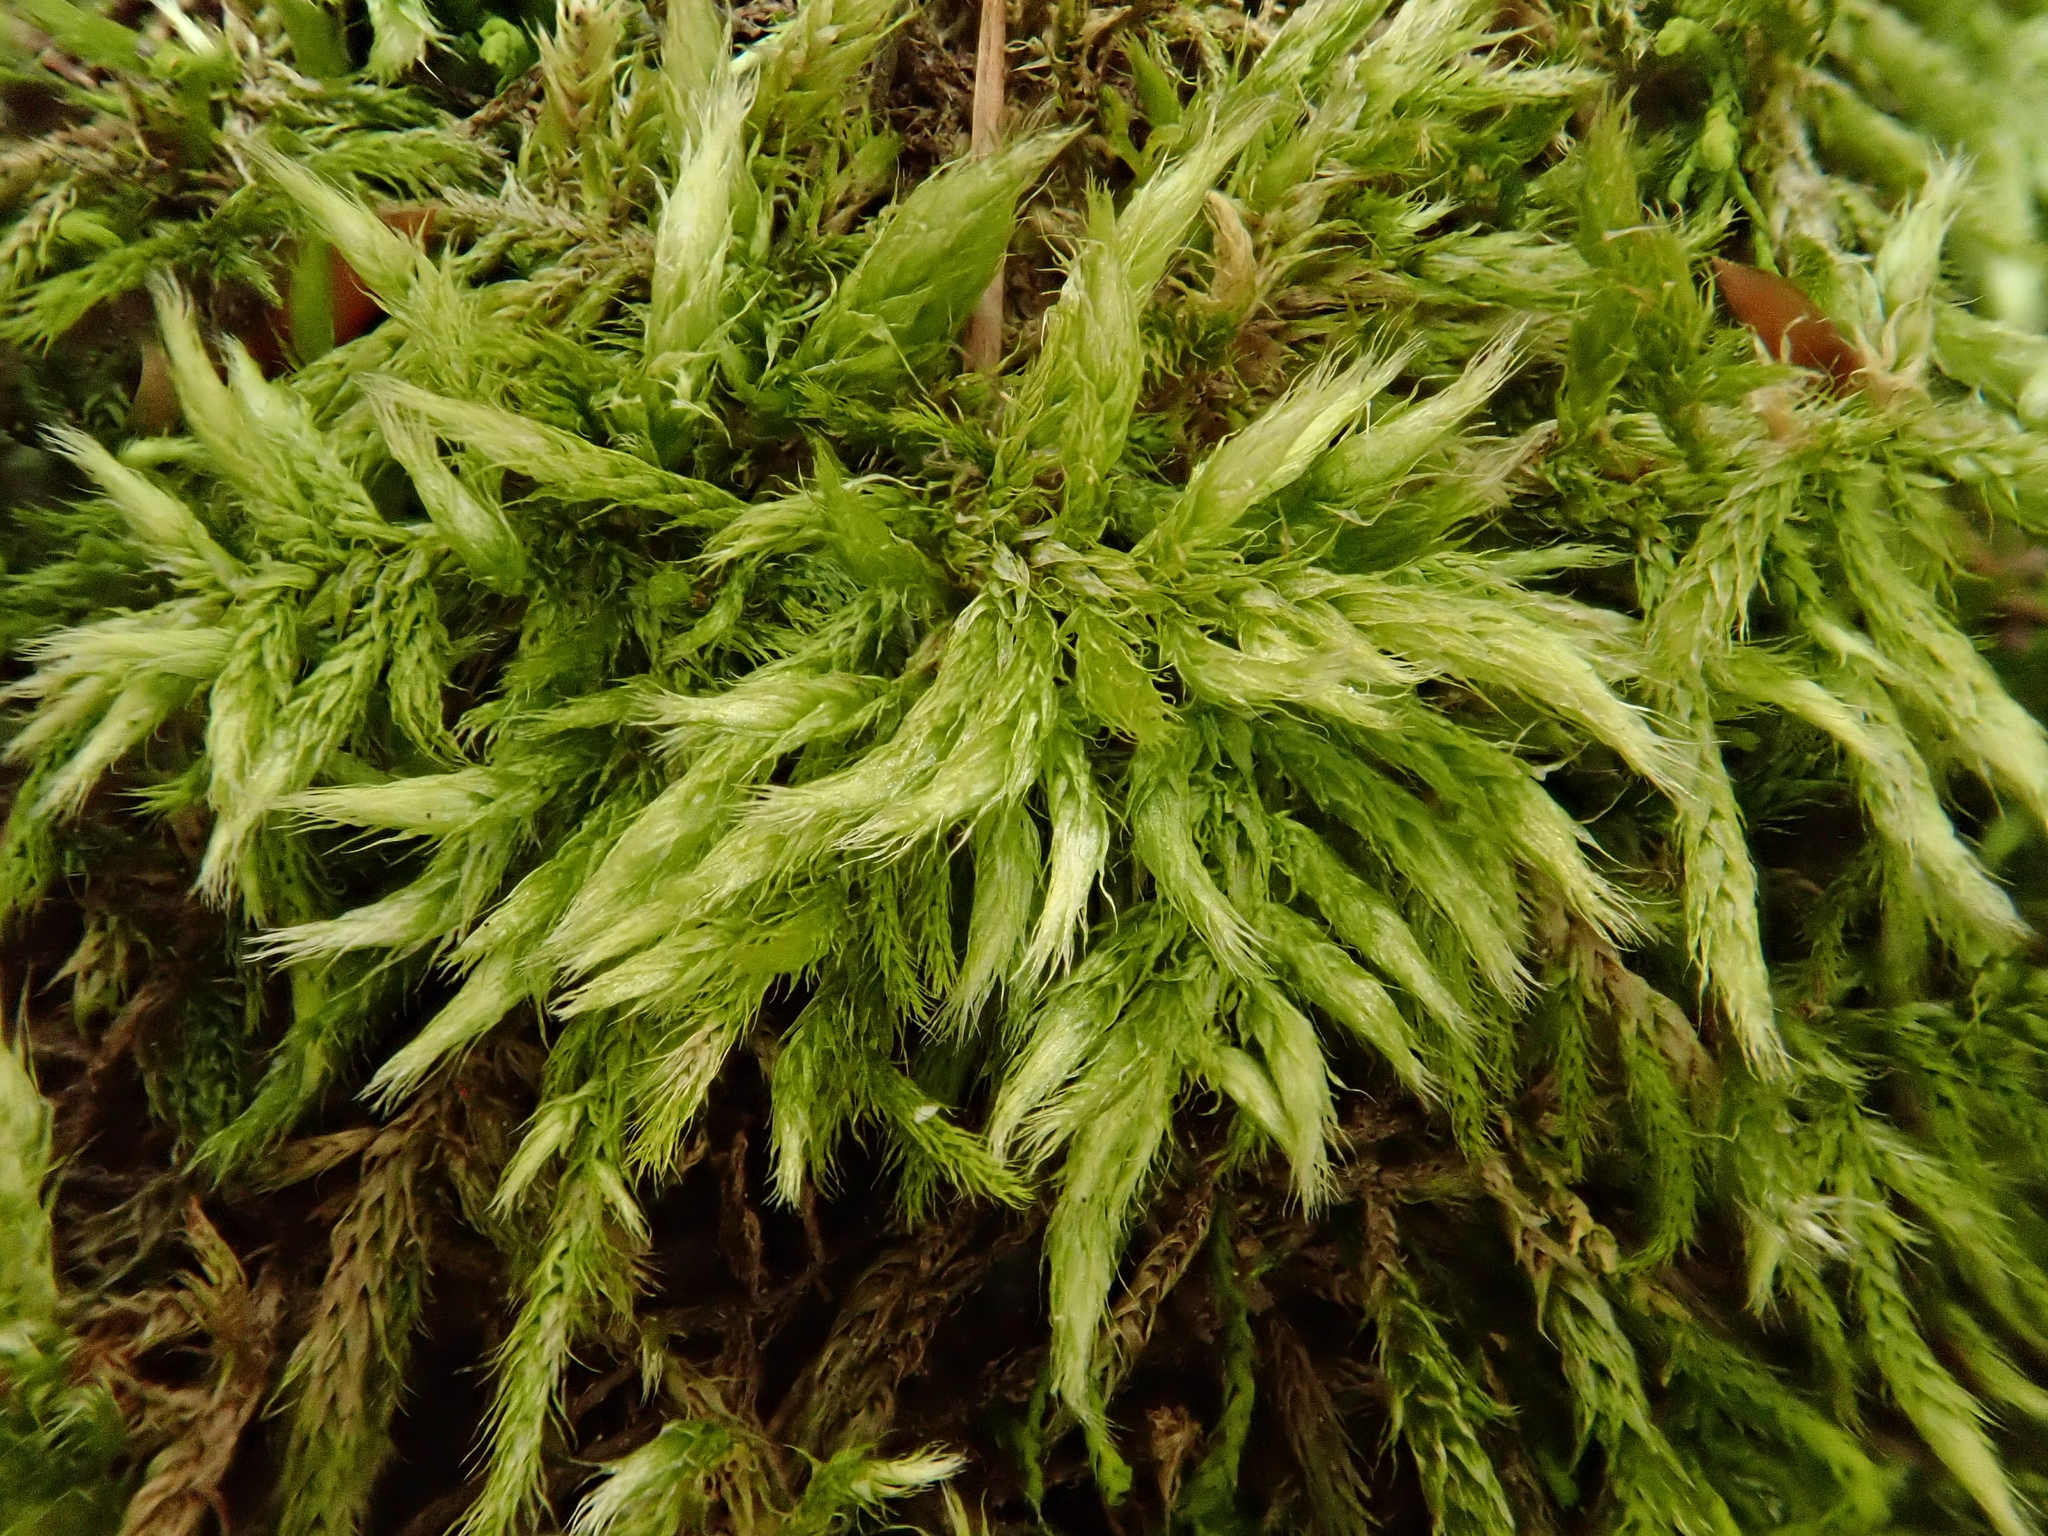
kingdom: Plantae
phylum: Bryophyta
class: Bryopsida
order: Hypnales
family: Brachytheciaceae
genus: Brachythecium
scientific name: Brachythecium glareosum
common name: Streaky feather-moss
